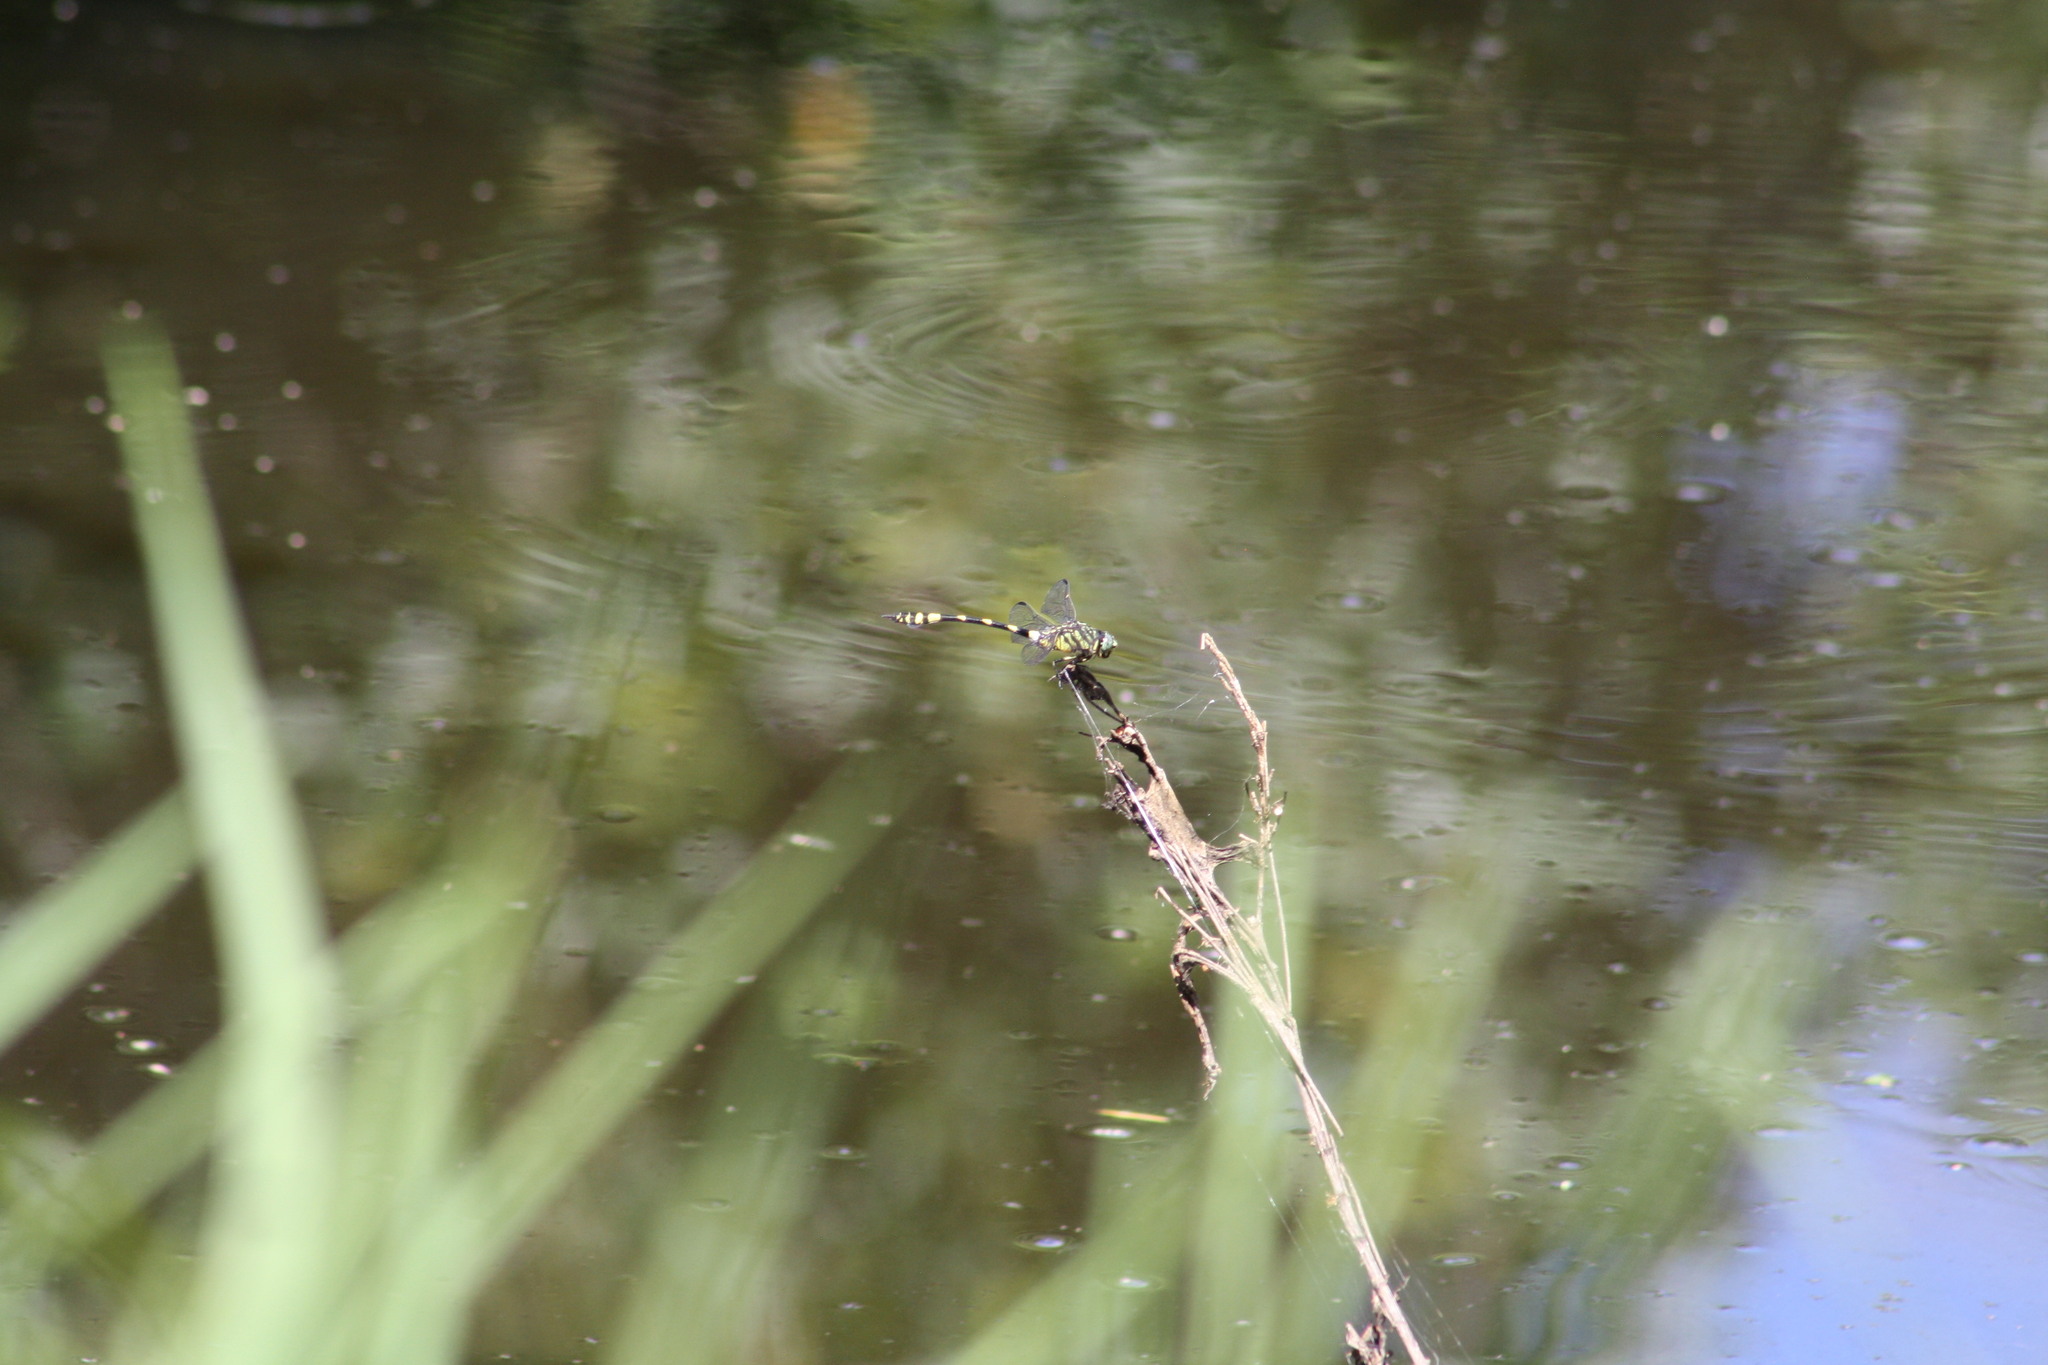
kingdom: Animalia
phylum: Arthropoda
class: Insecta
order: Odonata
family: Gomphidae
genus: Ictinogomphus
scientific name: Ictinogomphus australis
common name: Australian tiger
